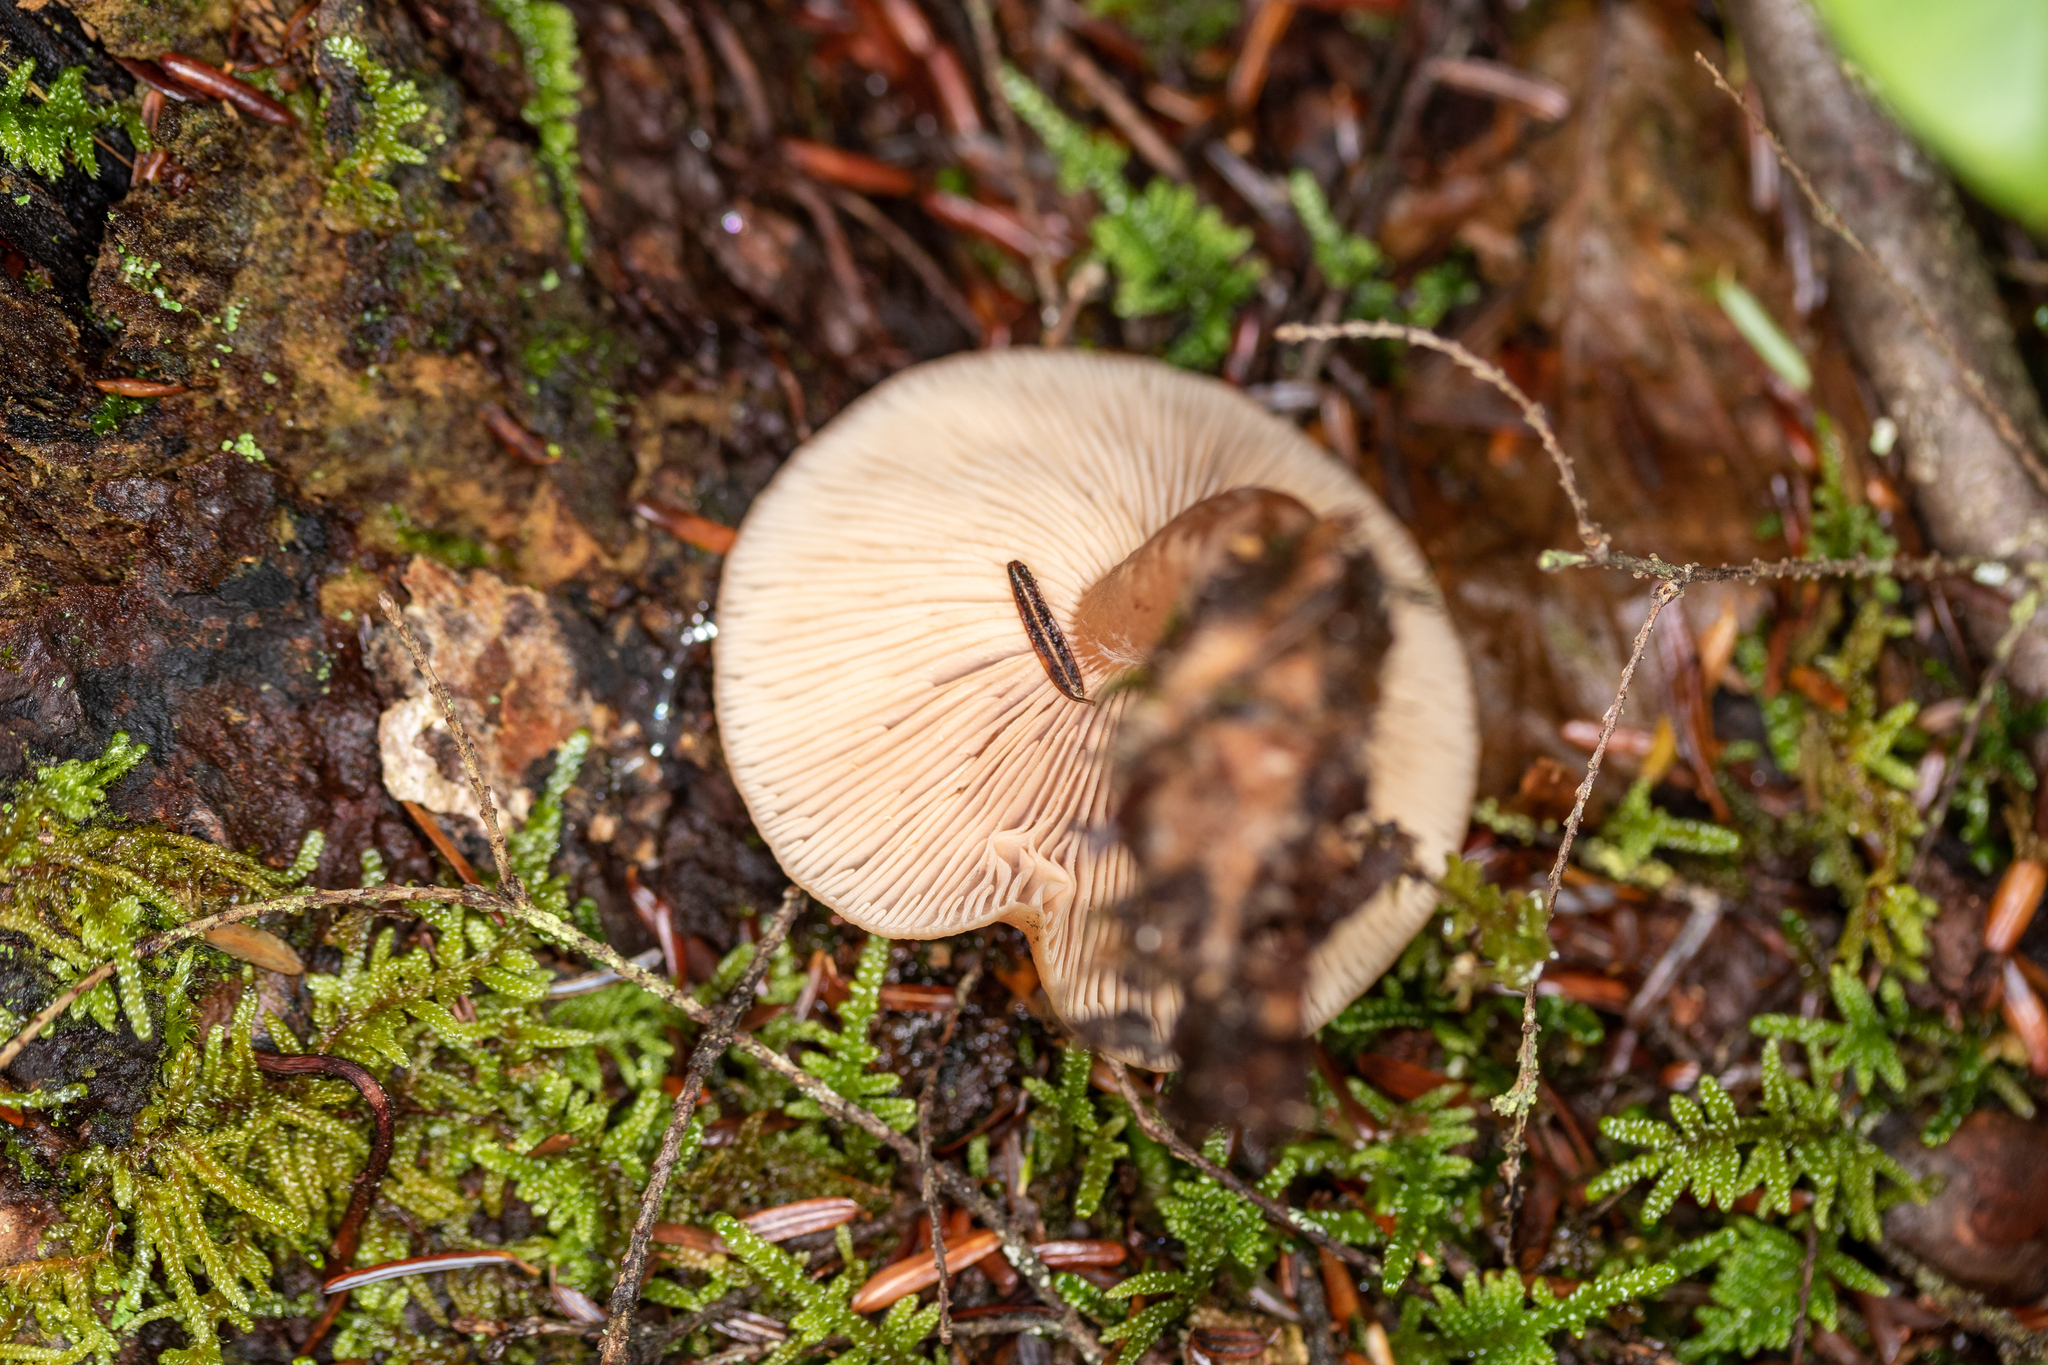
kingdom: Fungi
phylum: Basidiomycota
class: Agaricomycetes
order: Russulales
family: Russulaceae
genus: Lactarius
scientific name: Lactarius tabidus
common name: Birch milkcap
